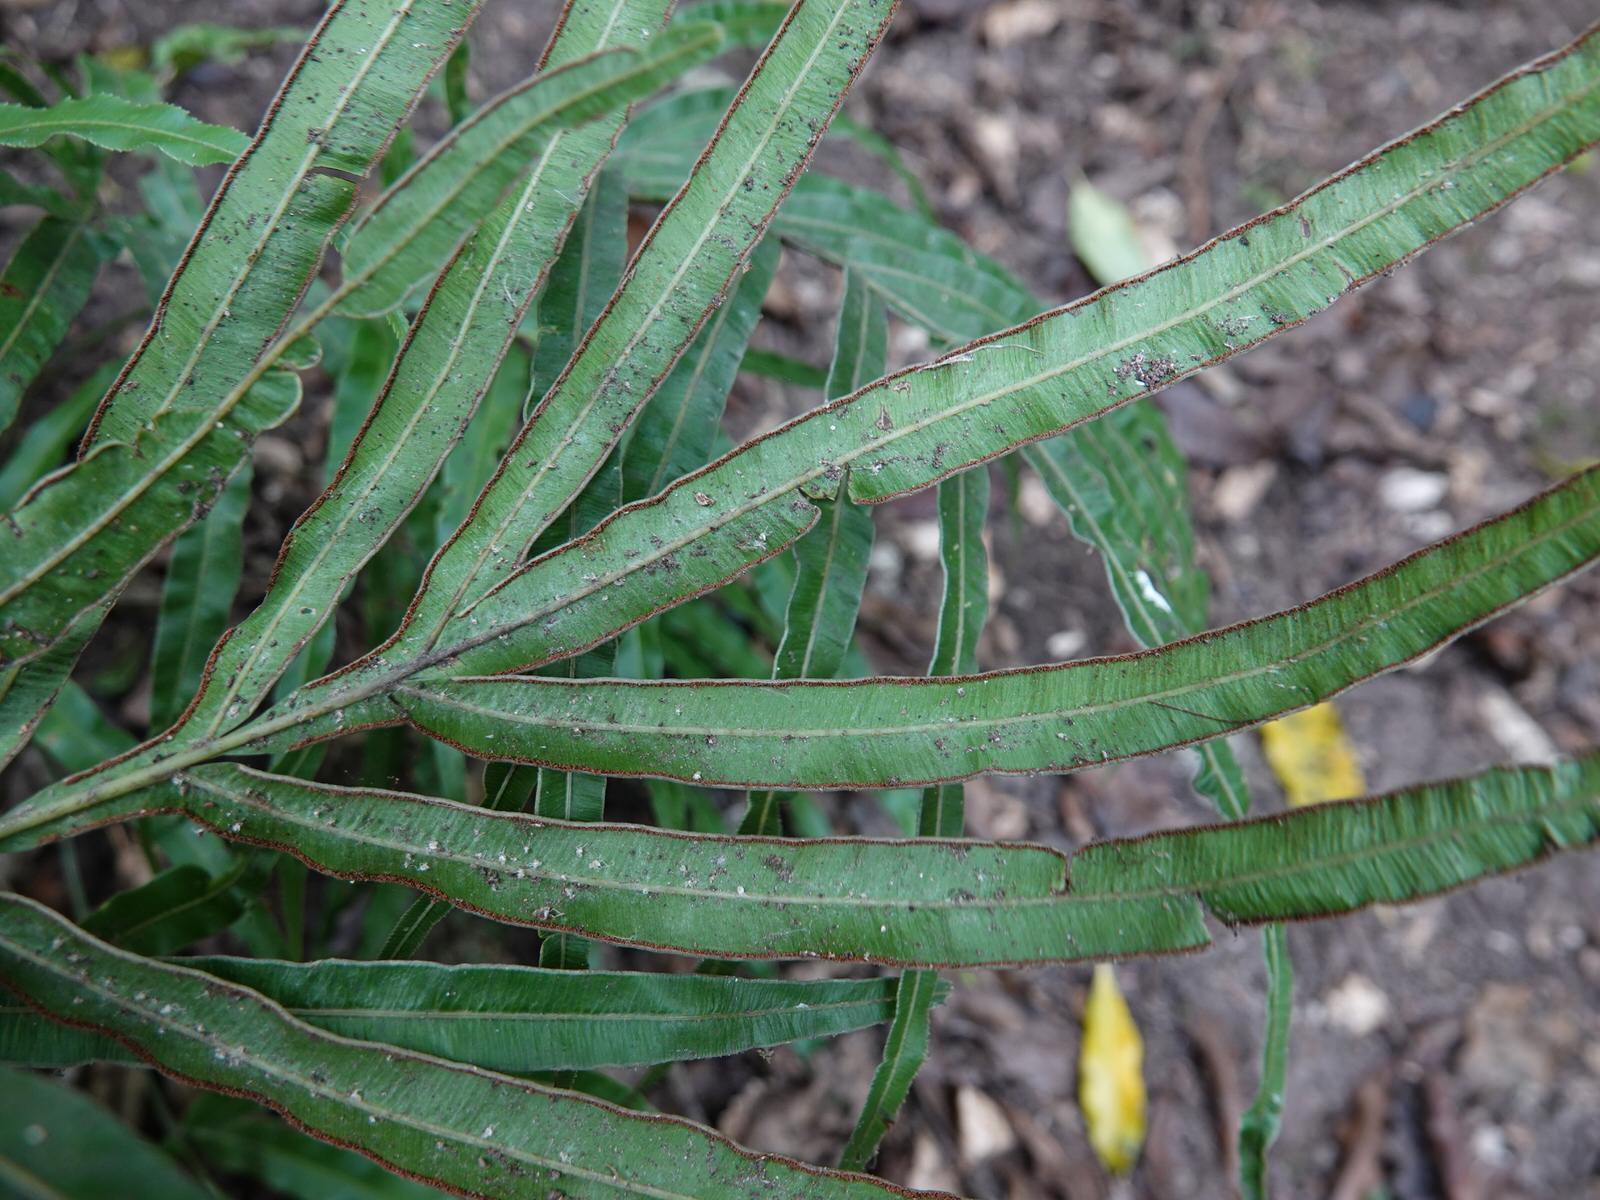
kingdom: Plantae
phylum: Tracheophyta
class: Polypodiopsida
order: Polypodiales
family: Pteridaceae
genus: Pteris
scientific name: Pteris cretica
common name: Ribbon fern
